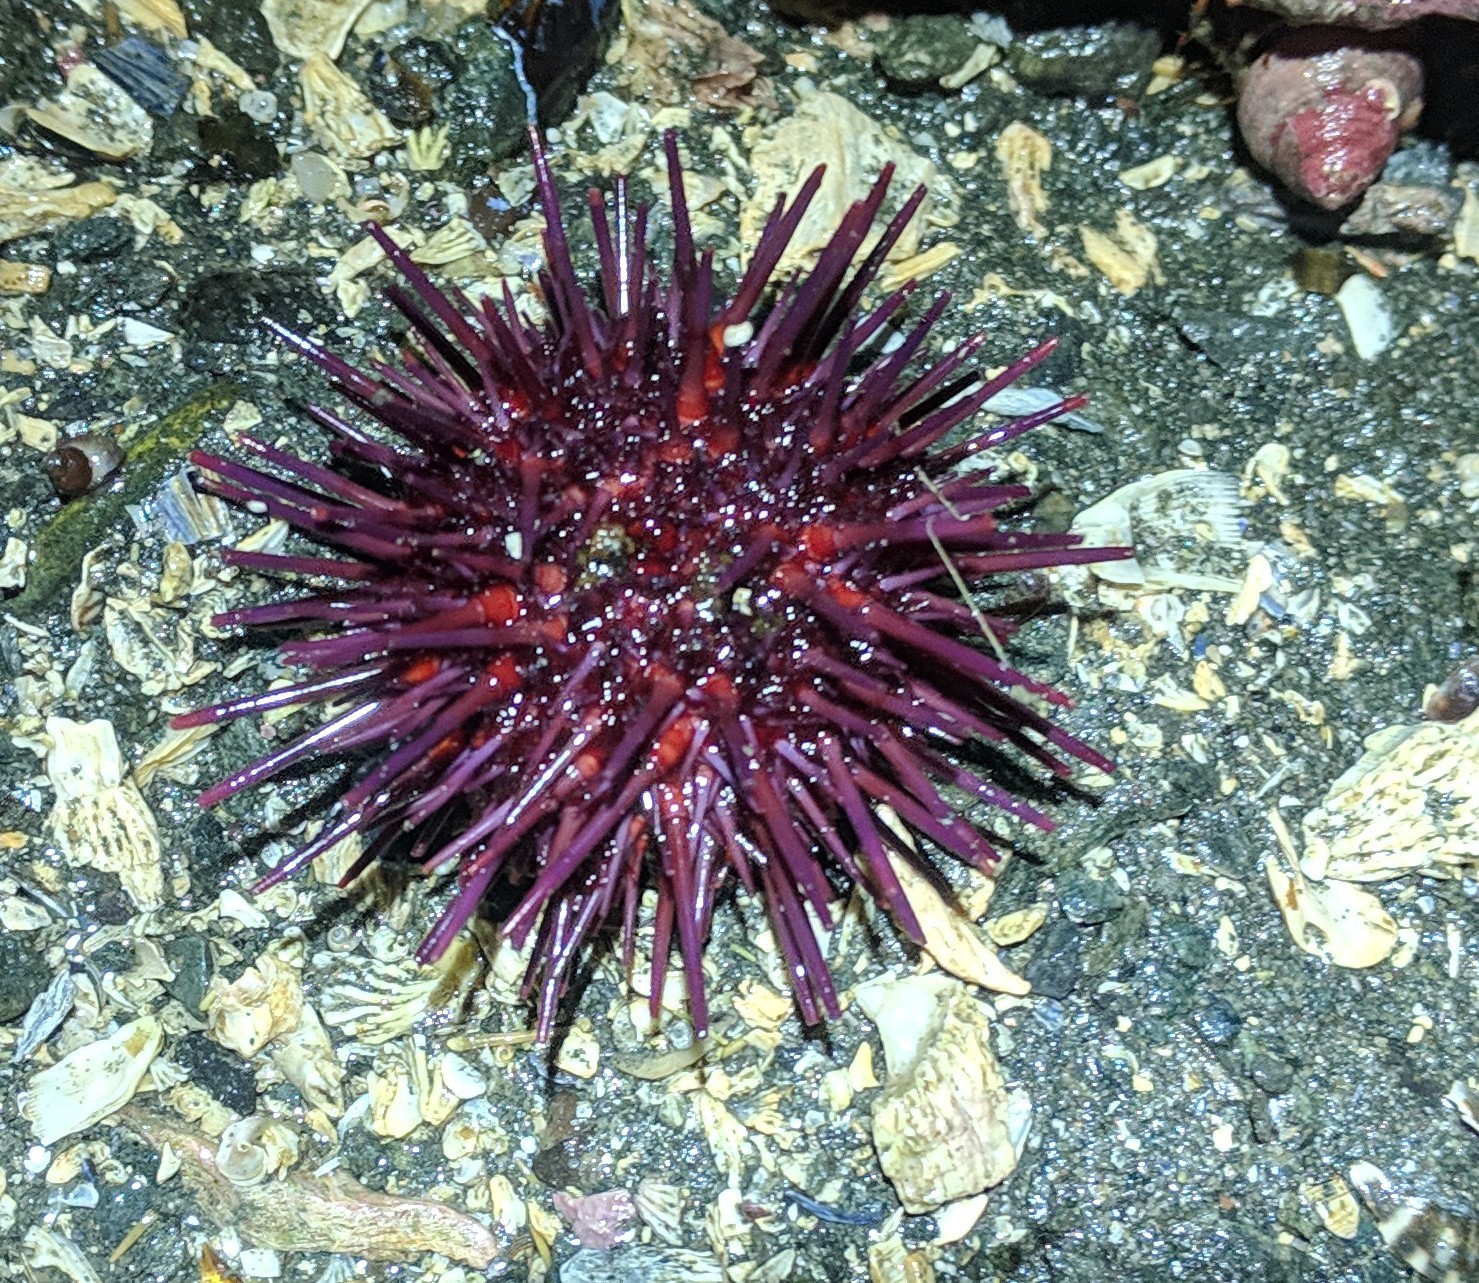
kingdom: Animalia
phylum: Echinodermata
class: Echinoidea
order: Camarodonta
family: Strongylocentrotidae
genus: Mesocentrotus
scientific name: Mesocentrotus franciscanus
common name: Red sea urchin
